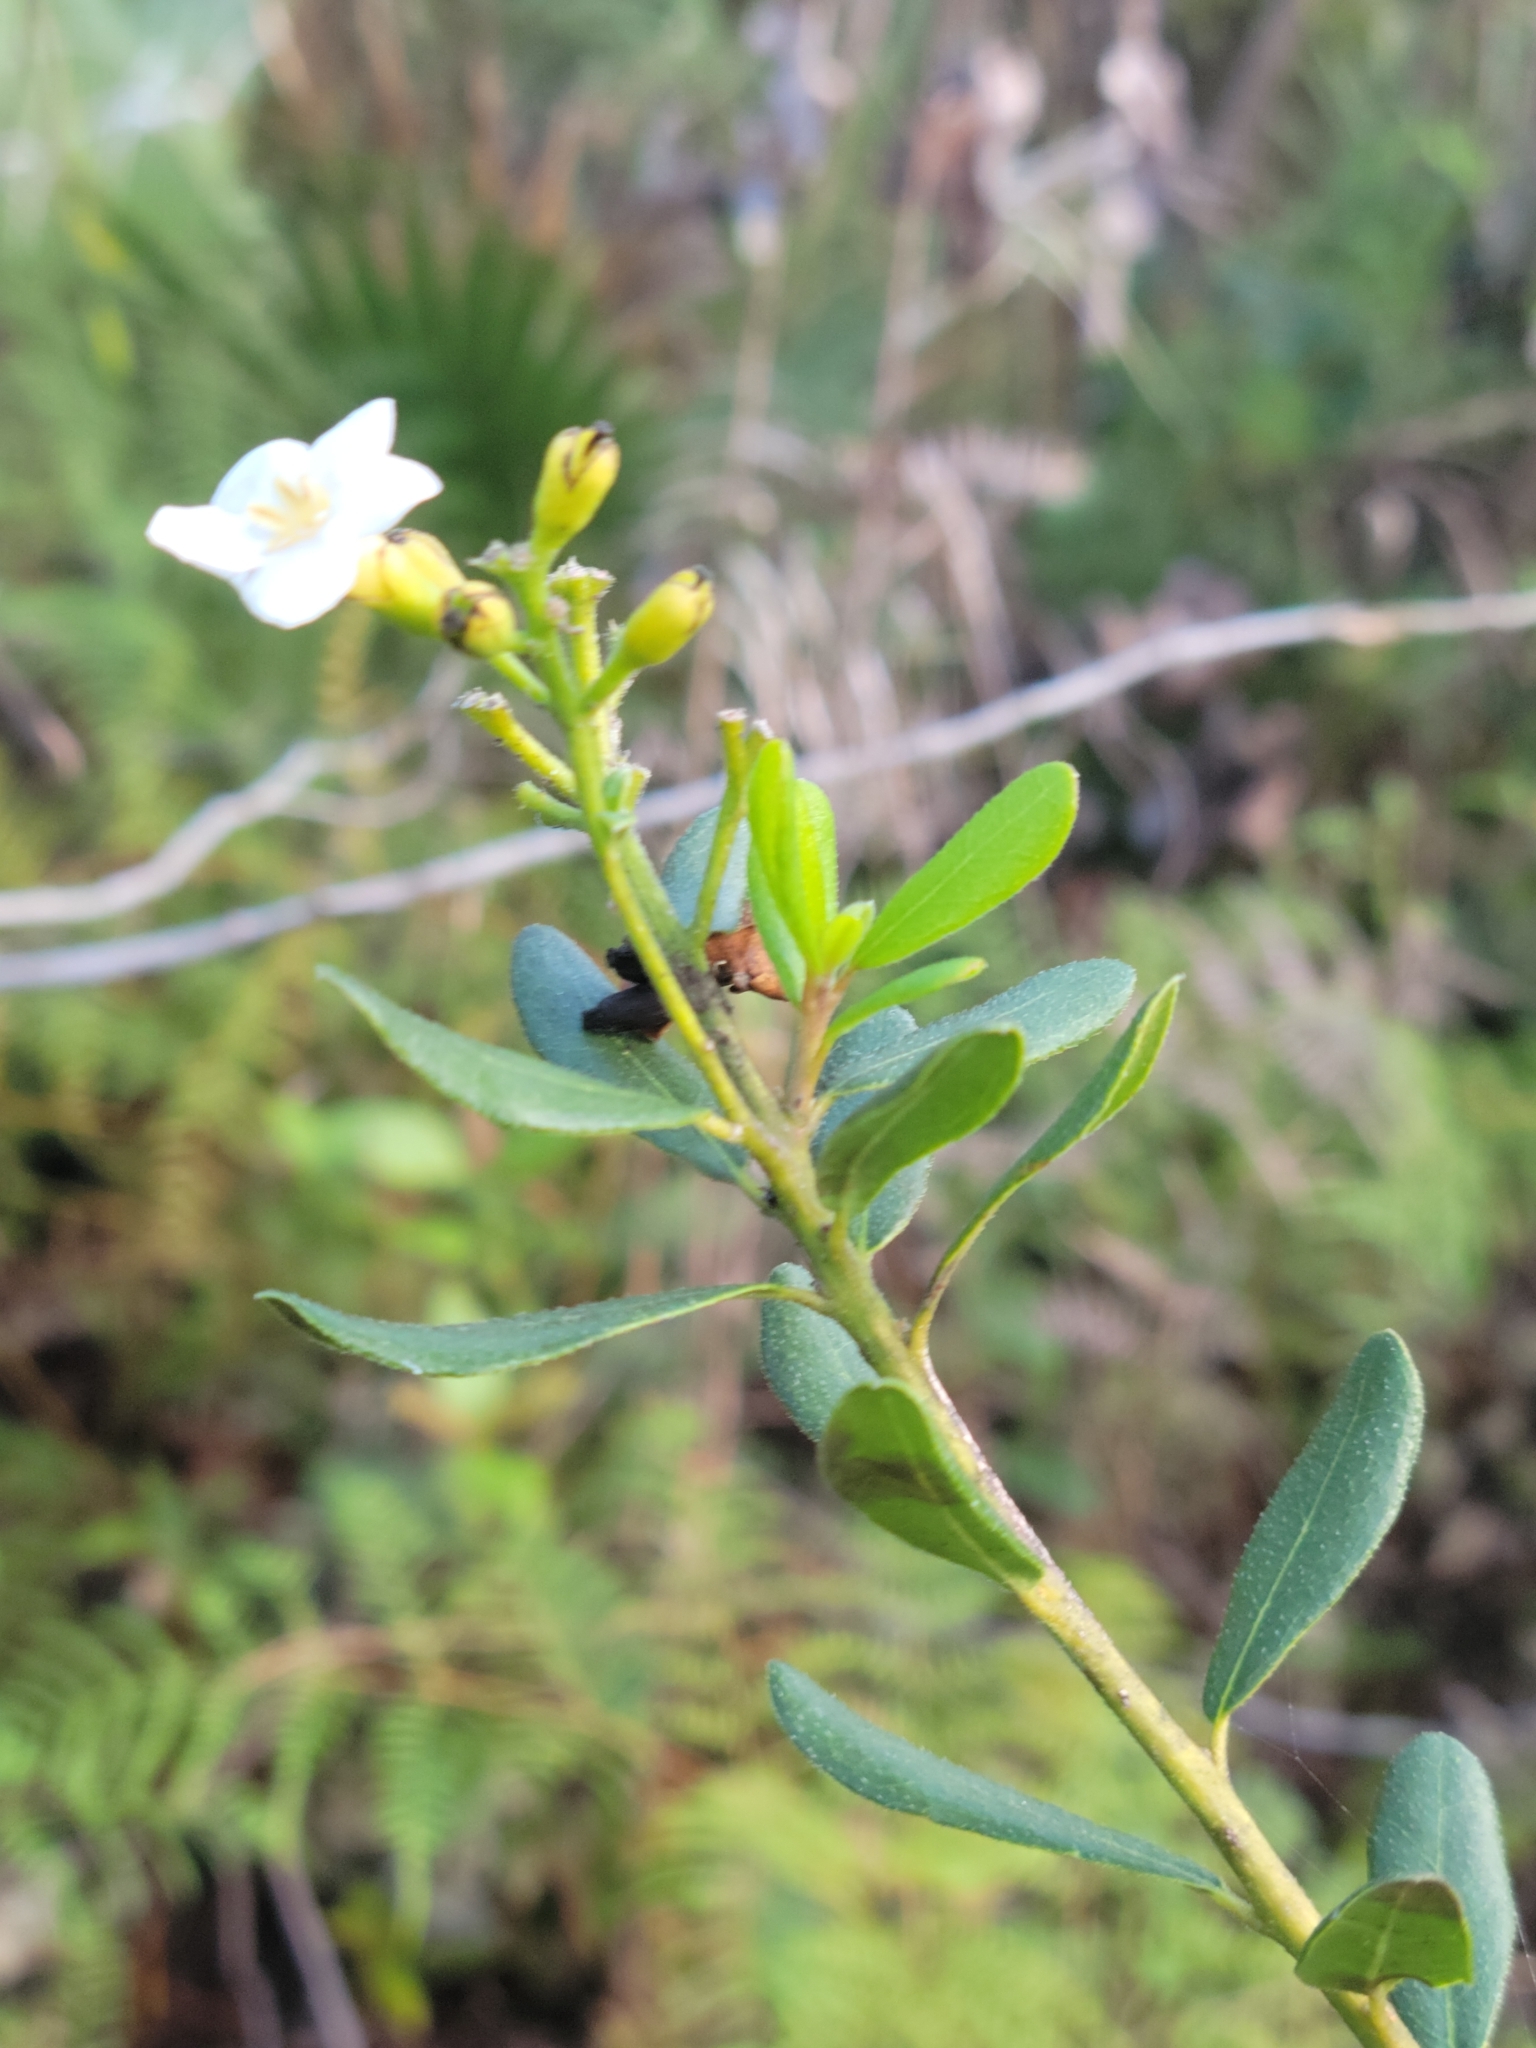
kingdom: Plantae
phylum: Tracheophyta
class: Magnoliopsida
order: Boraginales
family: Ehretiaceae
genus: Bourreria
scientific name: Bourreria havanensis
